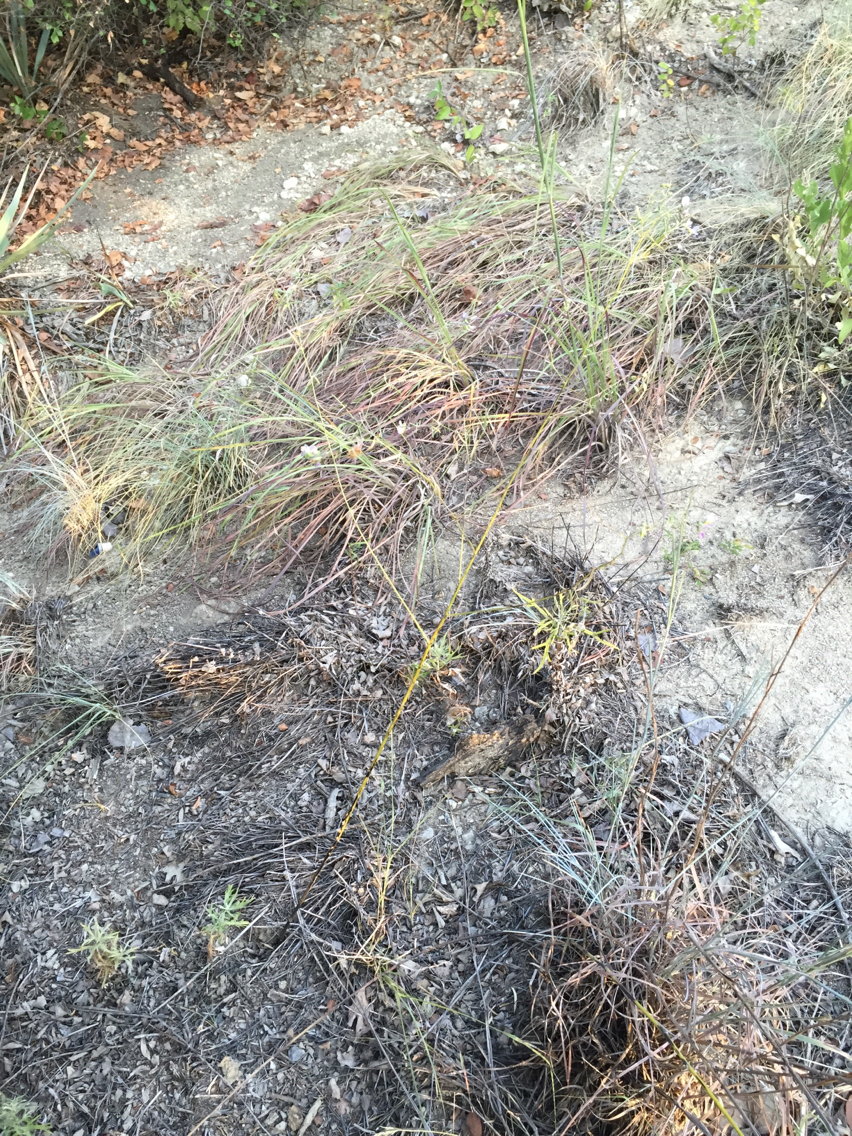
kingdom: Plantae
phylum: Tracheophyta
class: Magnoliopsida
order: Fabales
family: Fabaceae
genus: Pediomelum
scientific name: Pediomelum linearifolium
